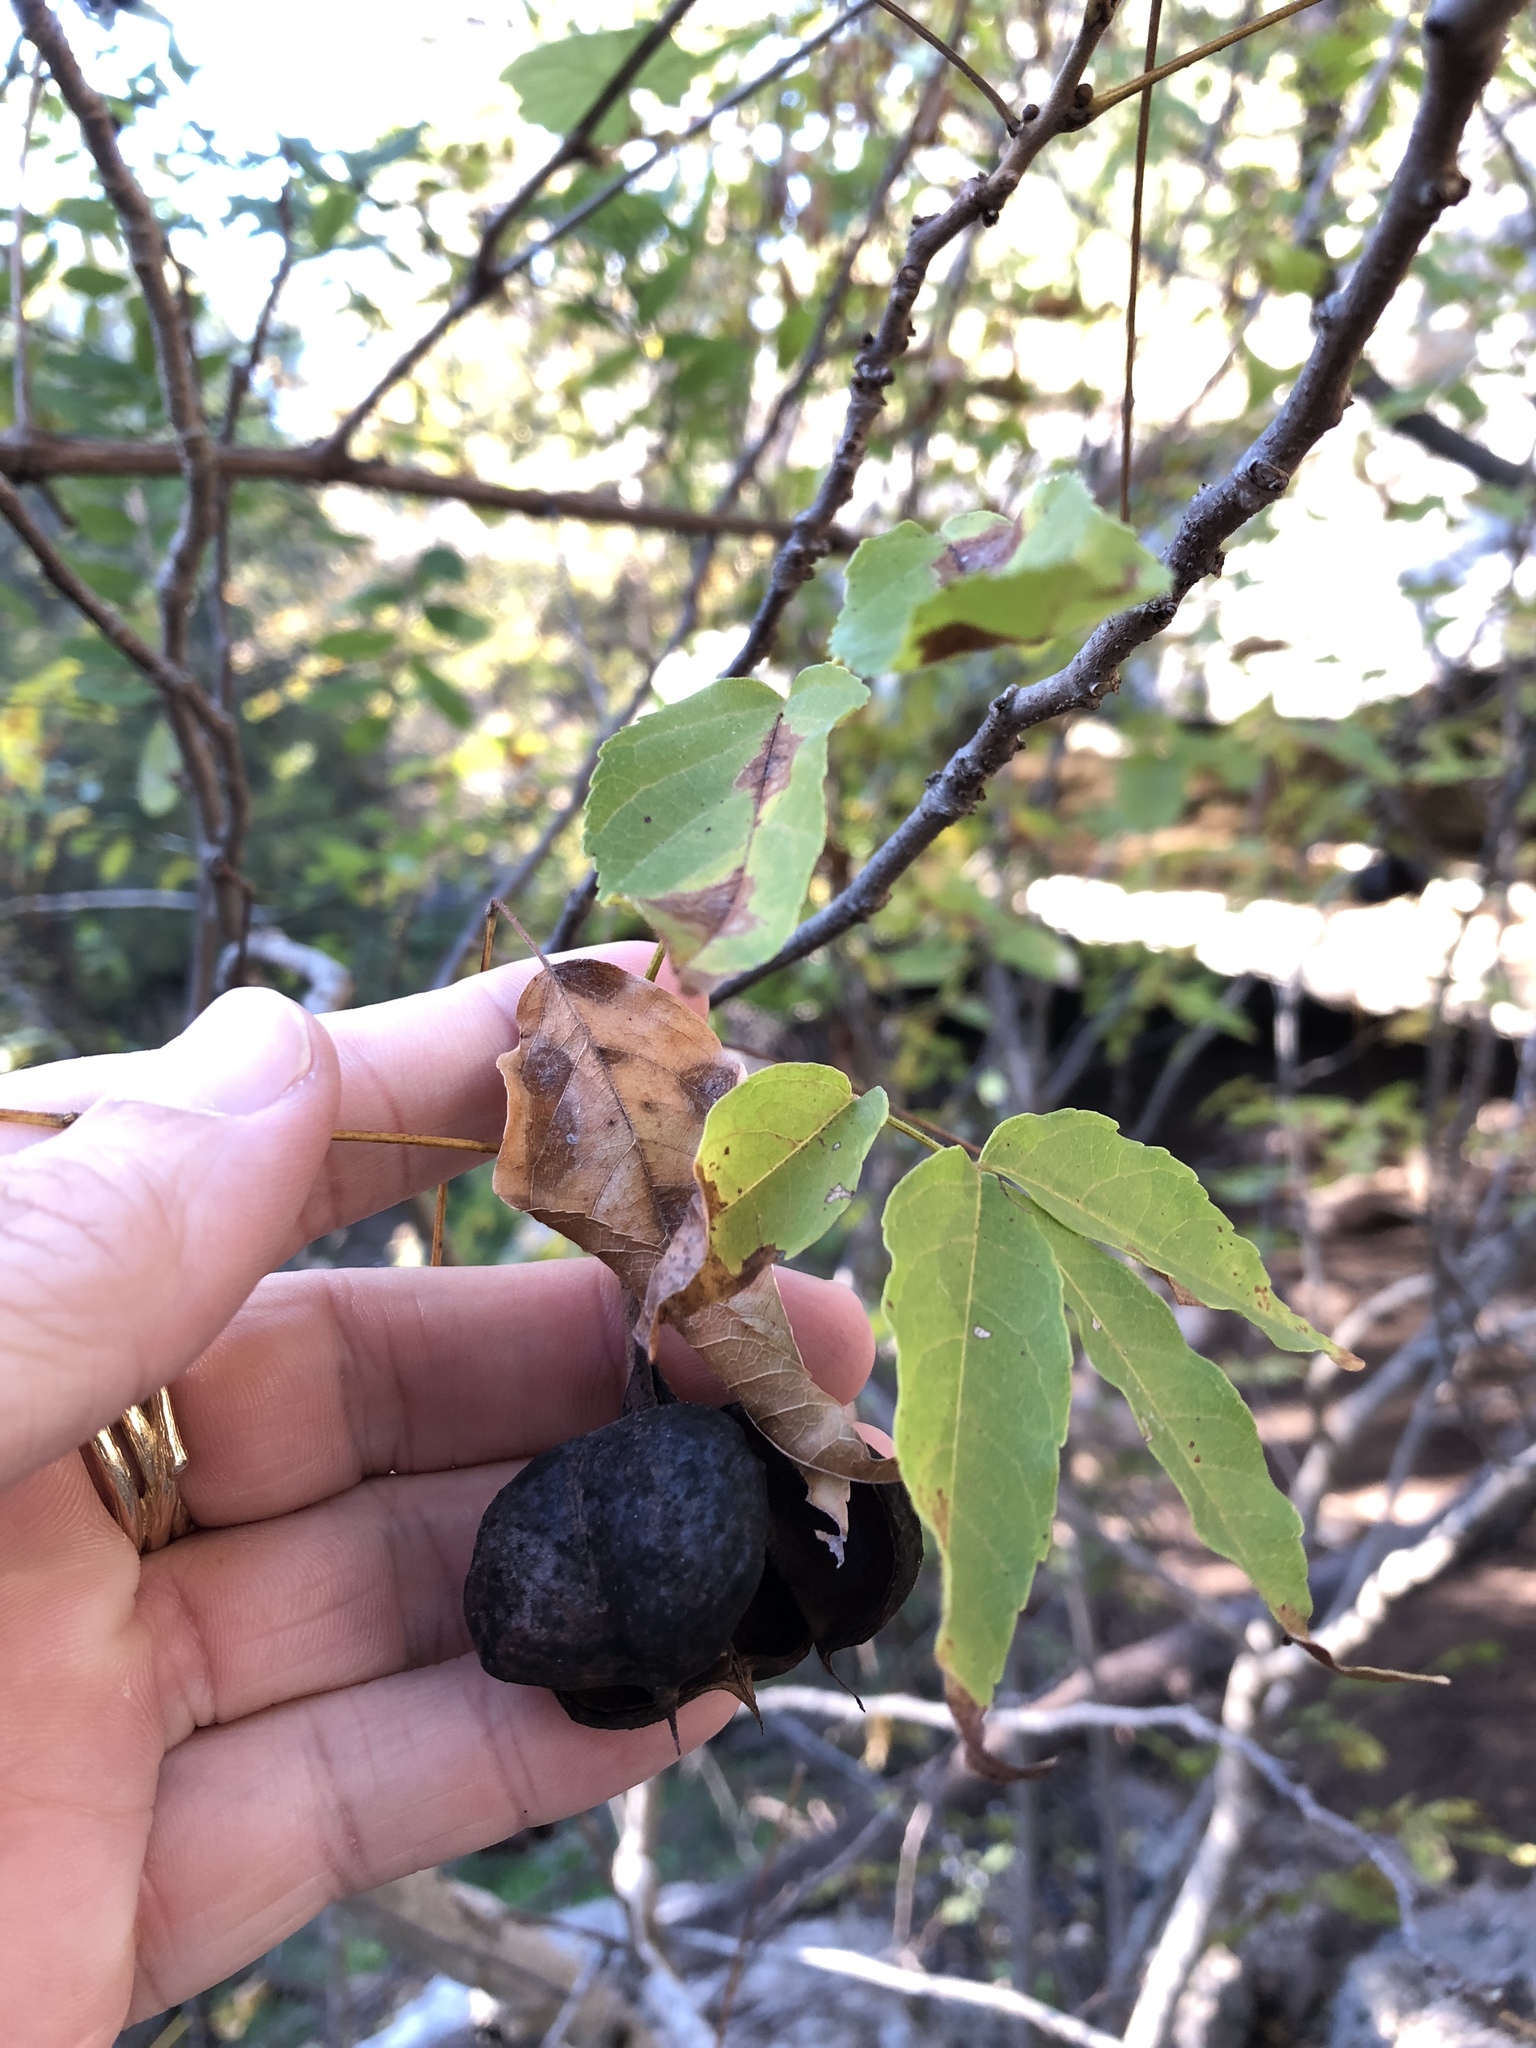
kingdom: Plantae
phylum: Tracheophyta
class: Magnoliopsida
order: Sapindales
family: Sapindaceae
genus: Ungnadia
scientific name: Ungnadia speciosa
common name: Texas-buckeye
